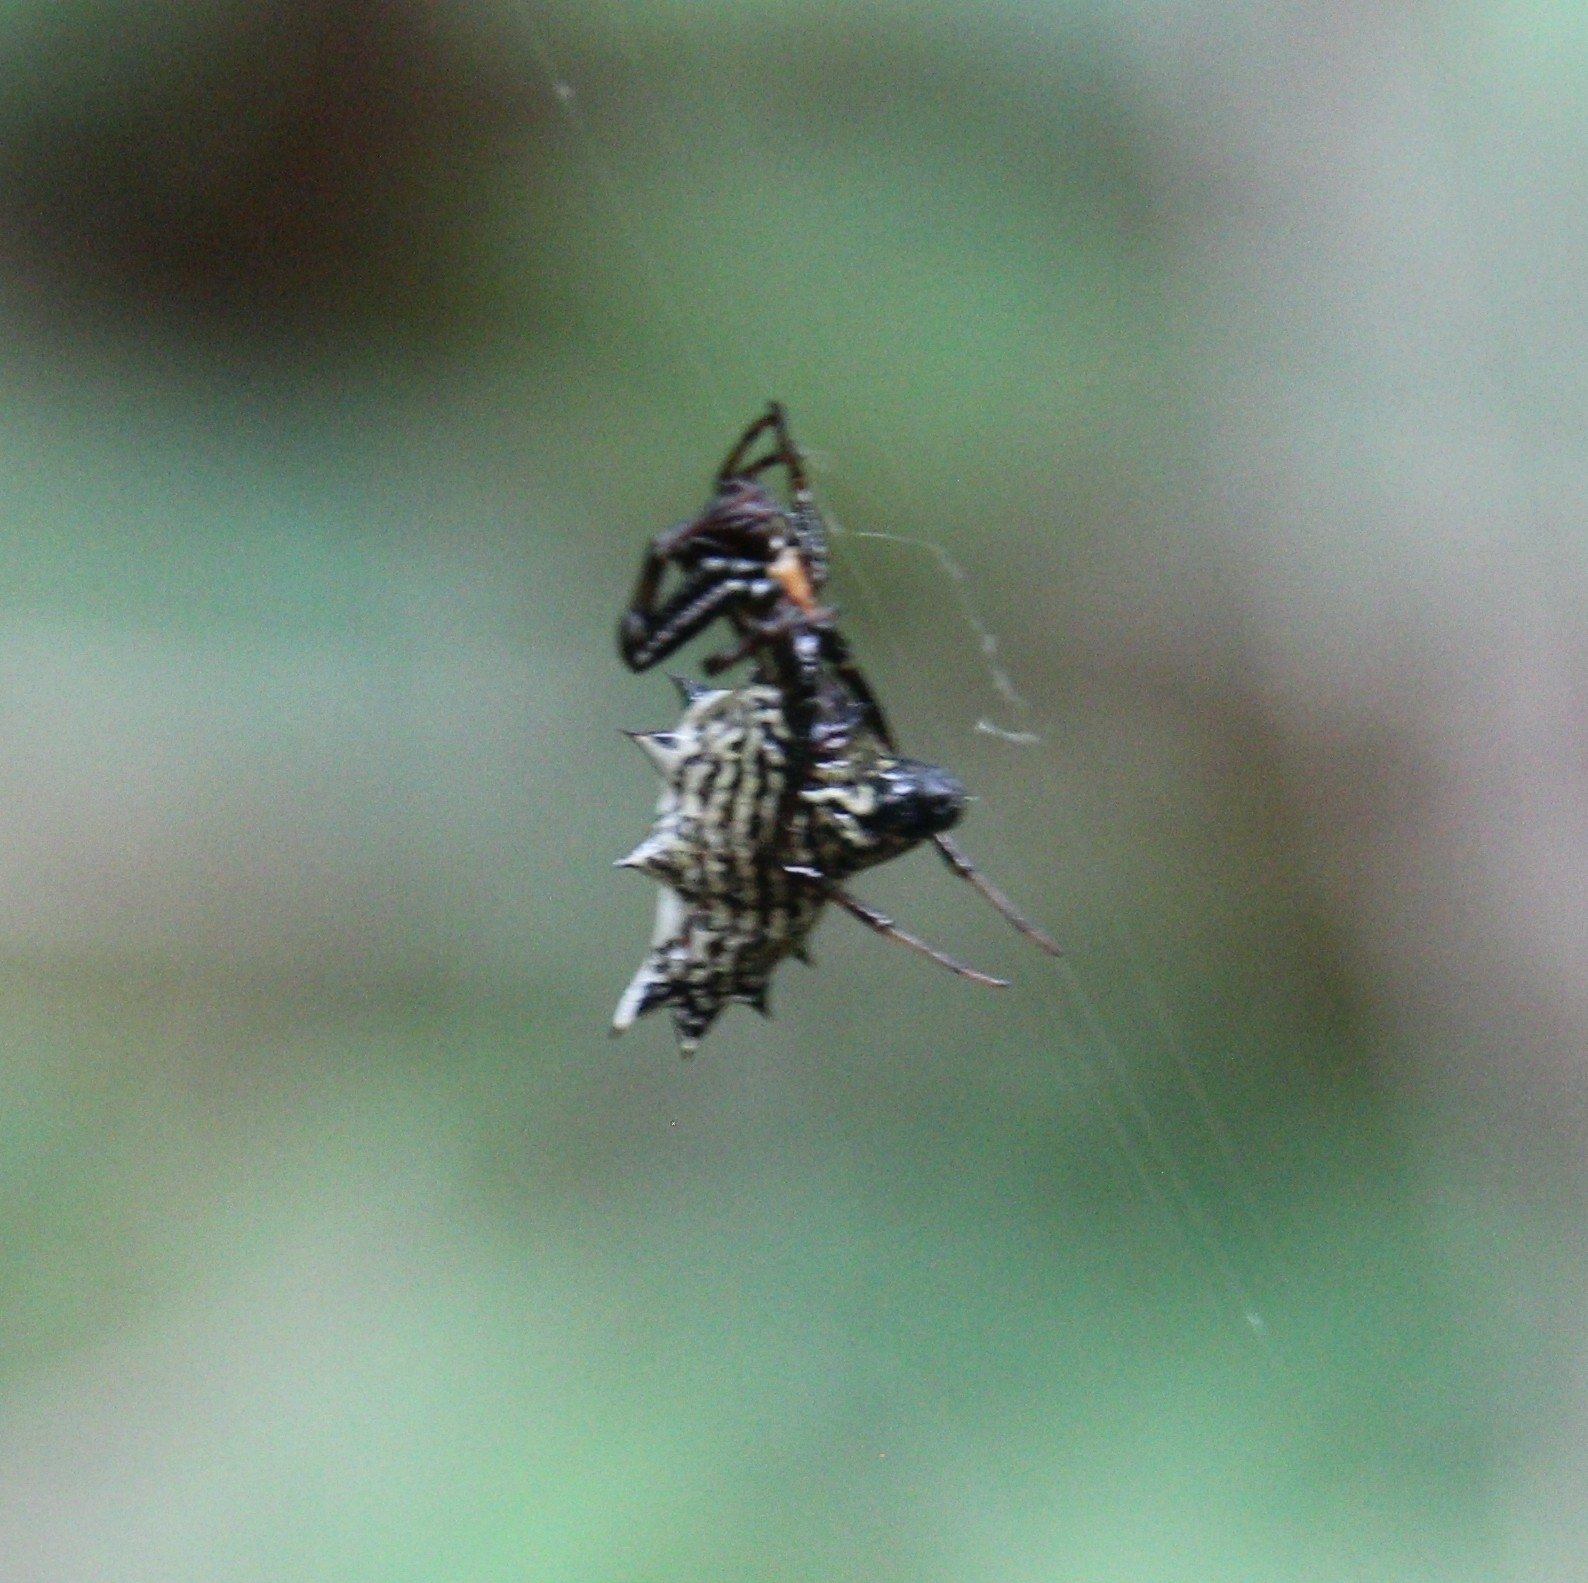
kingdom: Animalia
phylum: Arthropoda
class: Arachnida
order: Araneae
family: Araneidae
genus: Micrathena
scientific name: Micrathena gracilis
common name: Orb weavers
